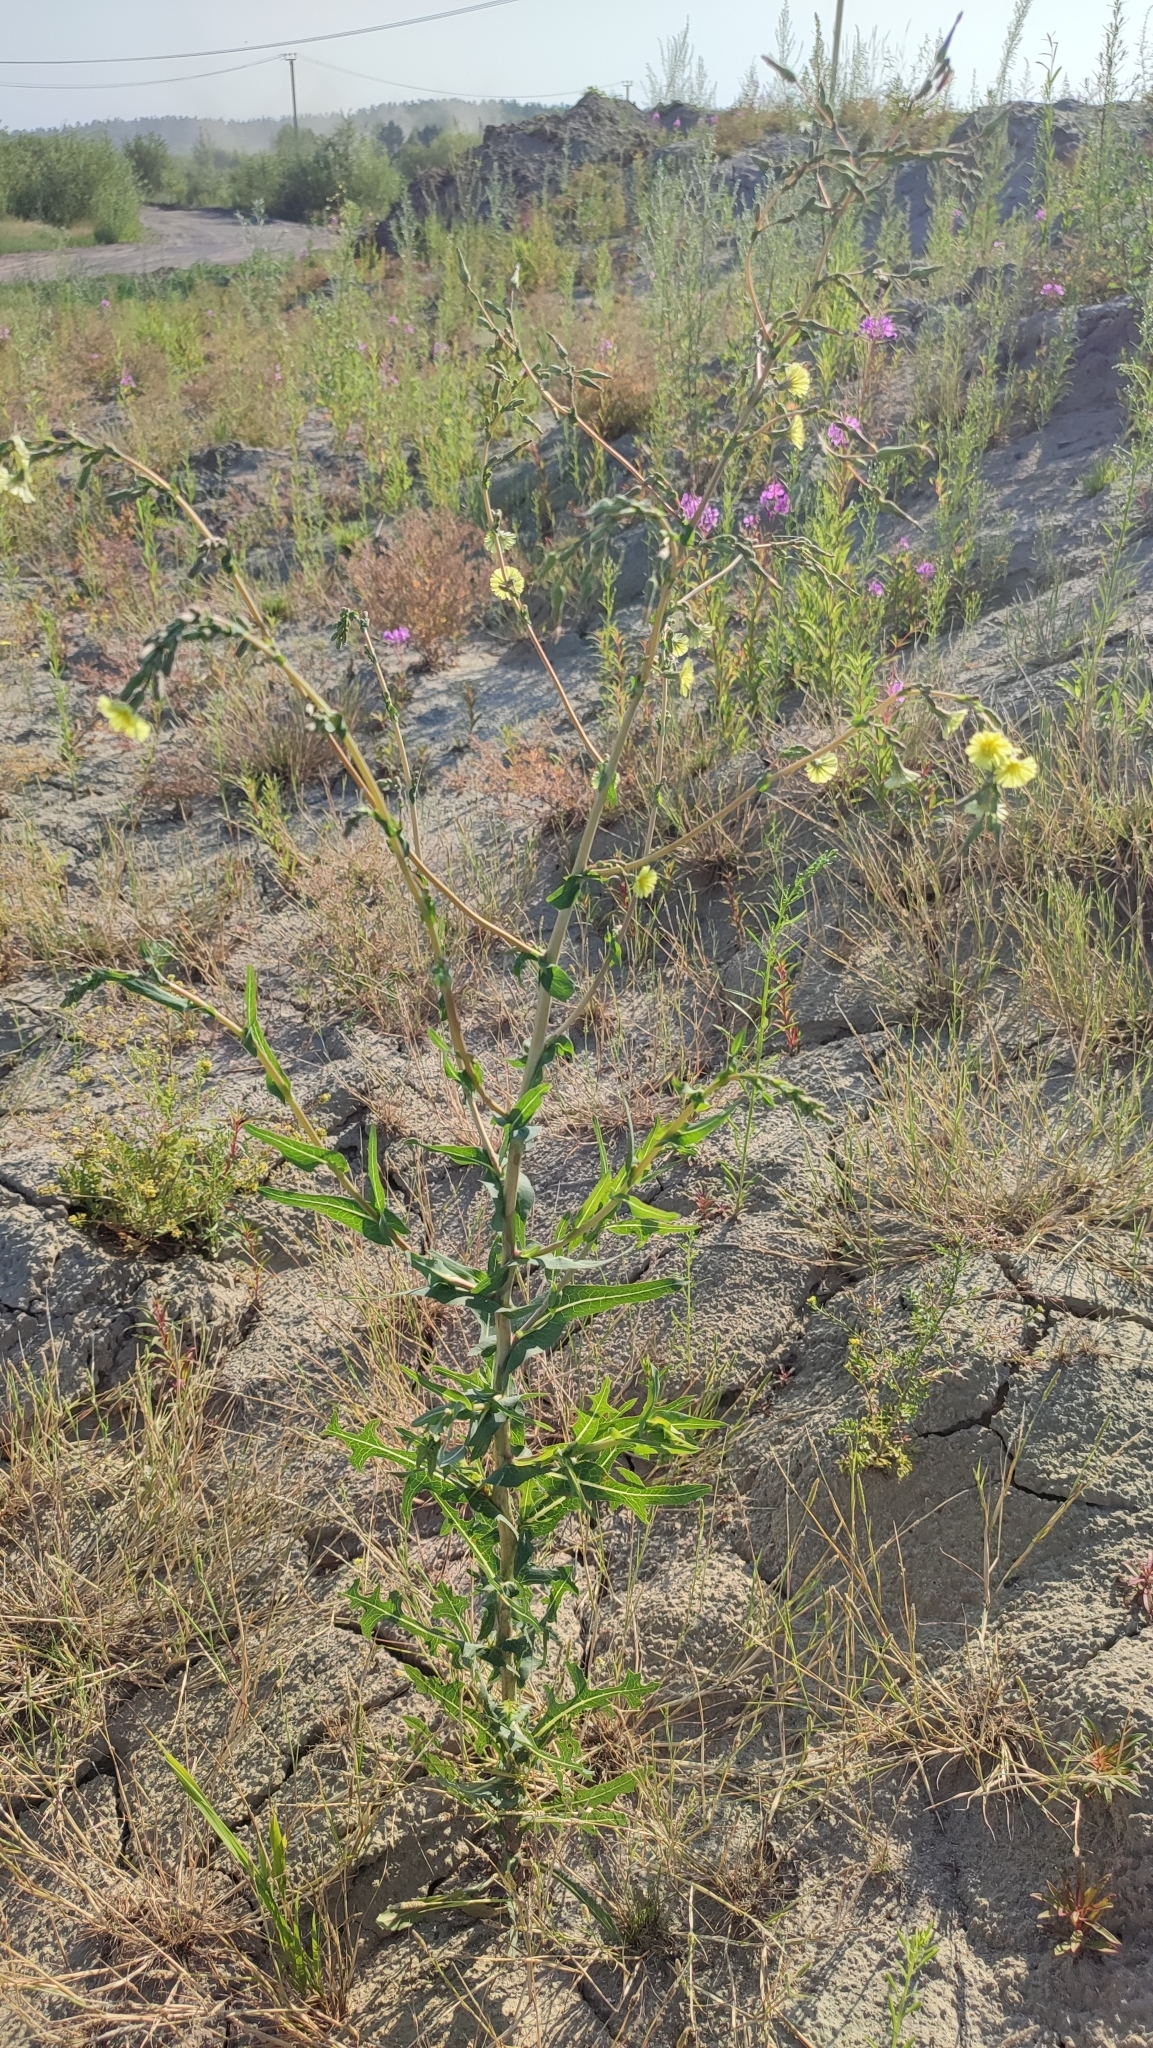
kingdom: Plantae
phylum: Tracheophyta
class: Magnoliopsida
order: Asterales
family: Asteraceae
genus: Lactuca
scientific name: Lactuca serriola
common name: Prickly lettuce
